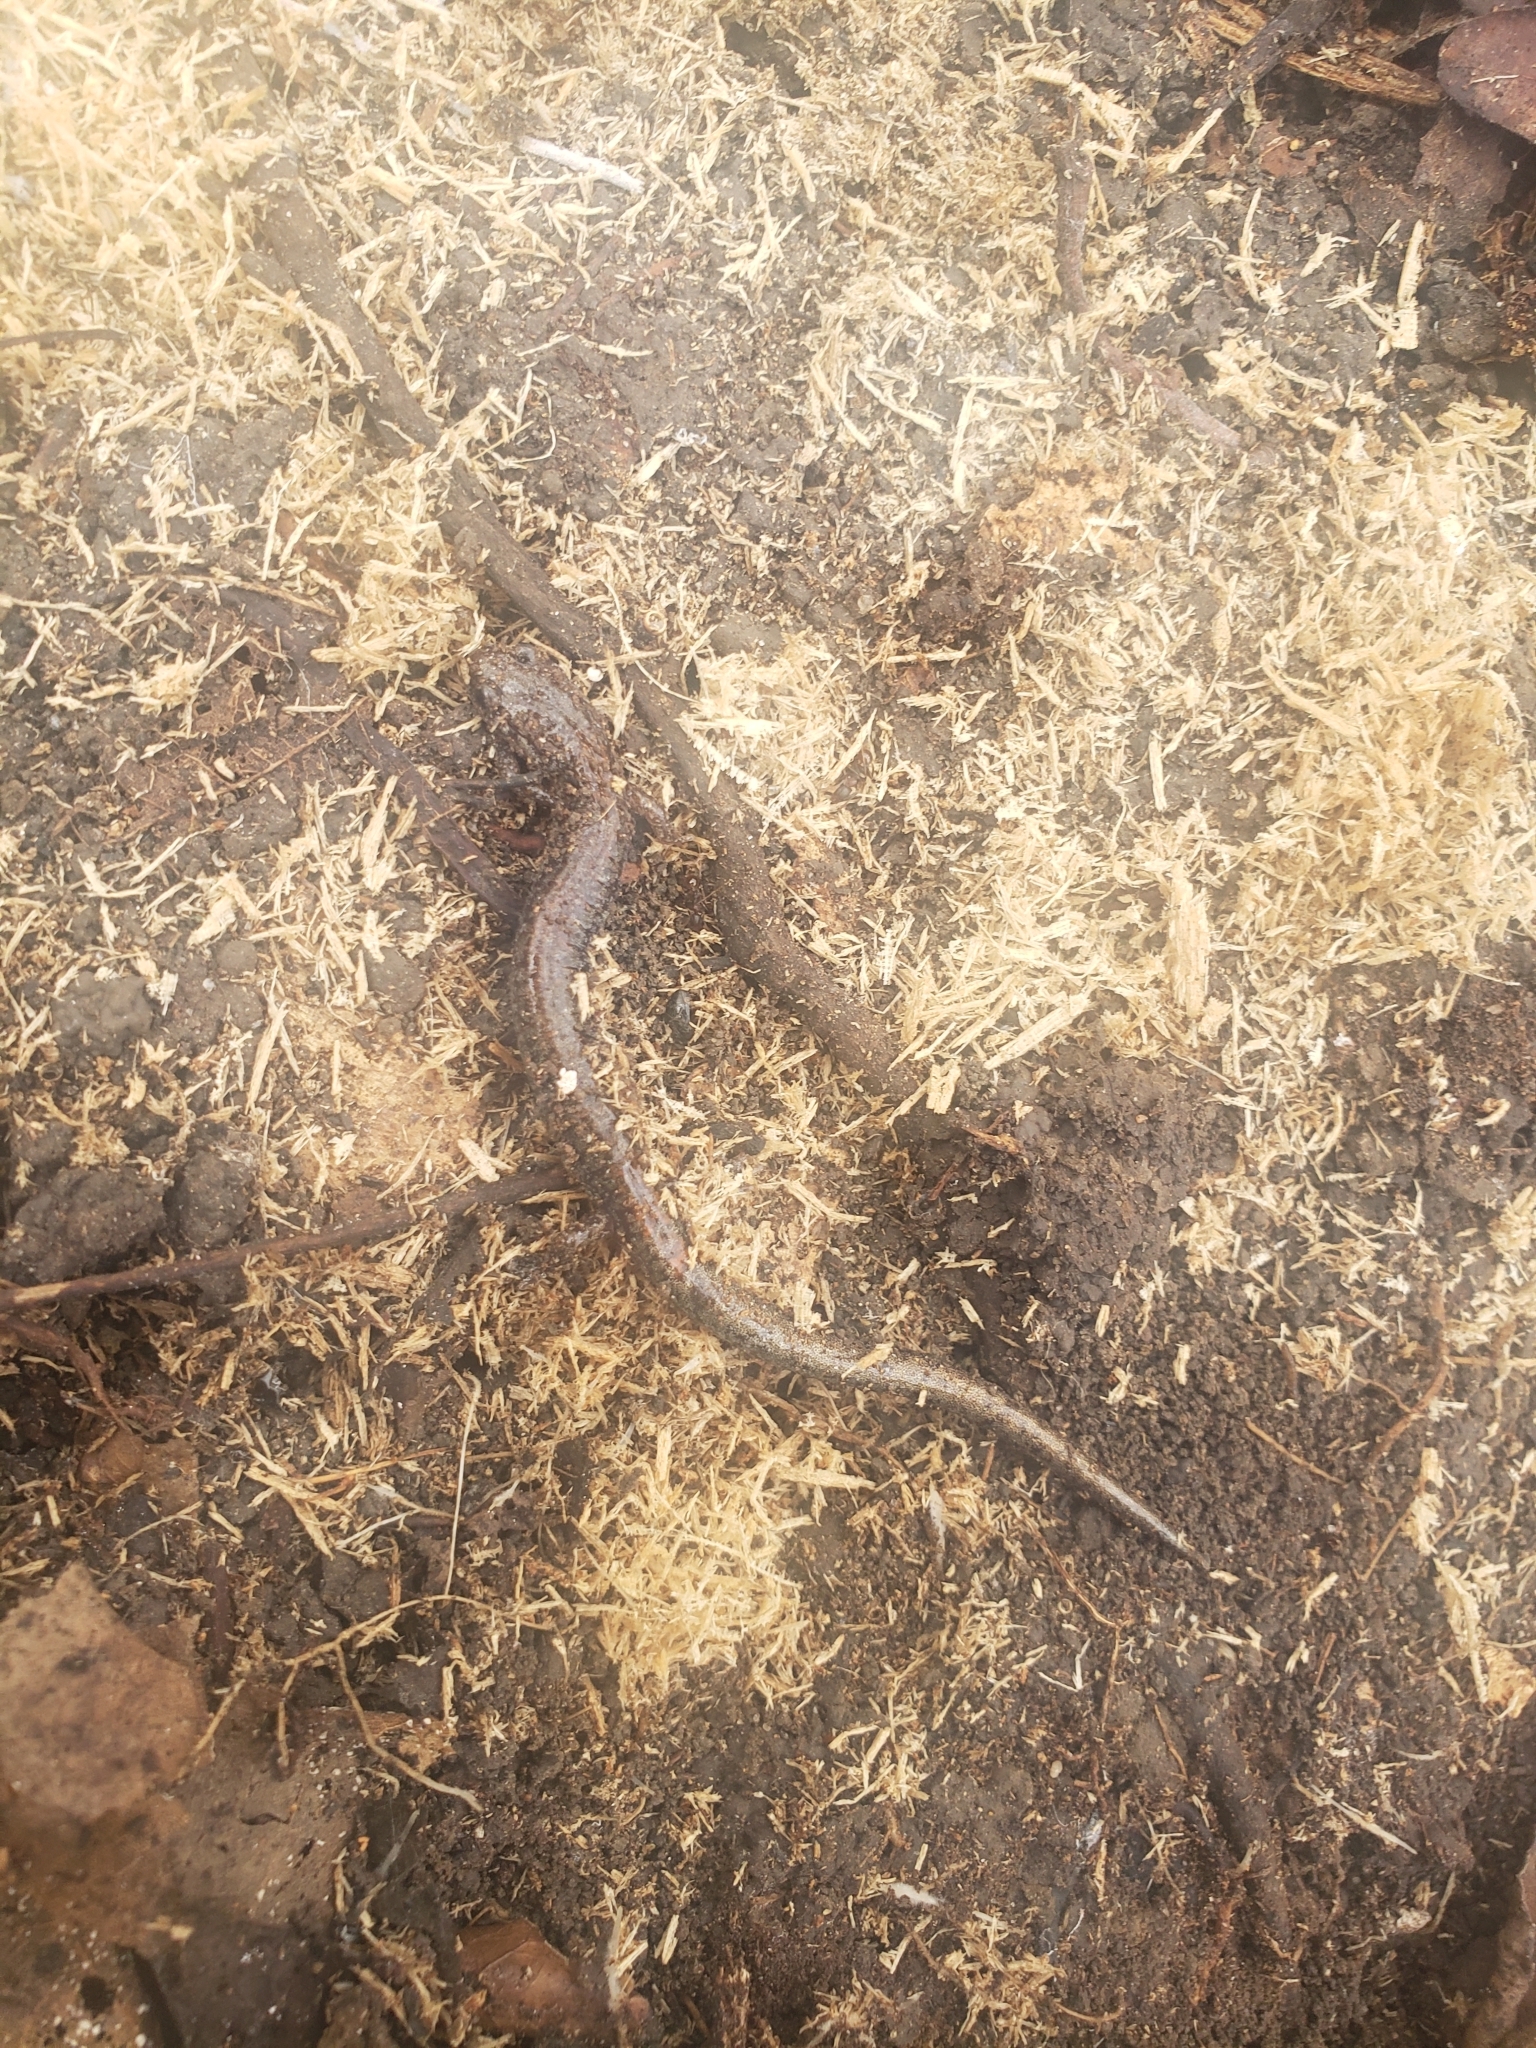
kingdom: Animalia
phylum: Chordata
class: Amphibia
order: Caudata
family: Plethodontidae
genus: Plethodon
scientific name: Plethodon cinereus
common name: Redback salamander
